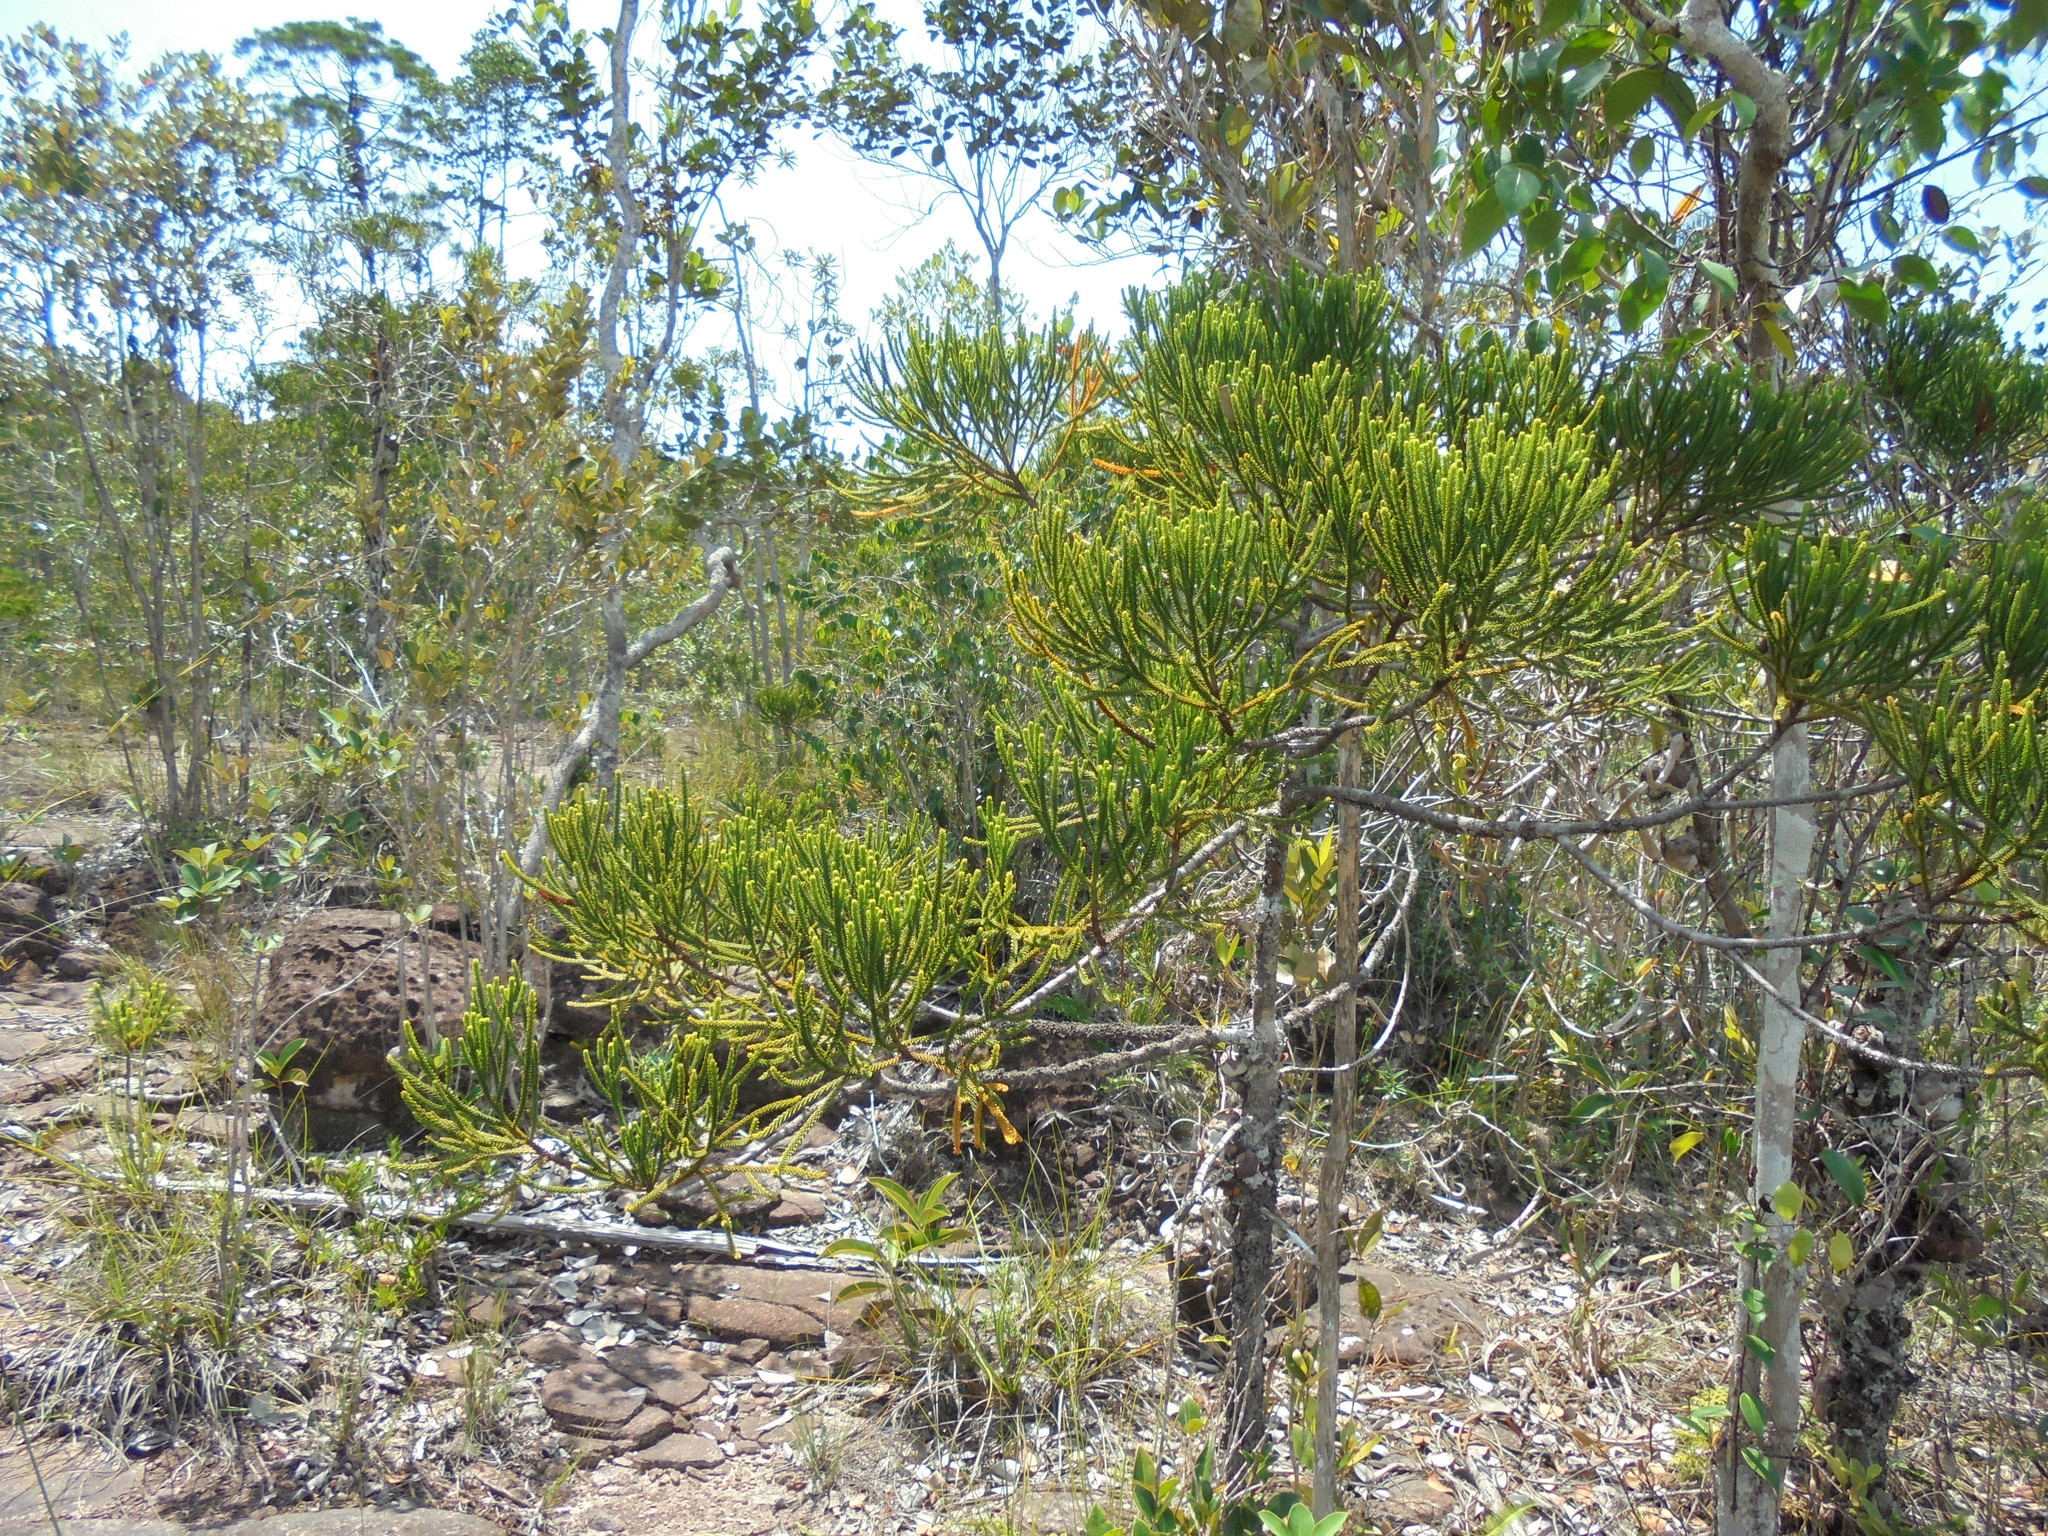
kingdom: Plantae
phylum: Tracheophyta
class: Pinopsida
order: Pinales
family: Podocarpaceae
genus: Dacrydium
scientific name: Dacrydium beccarii
